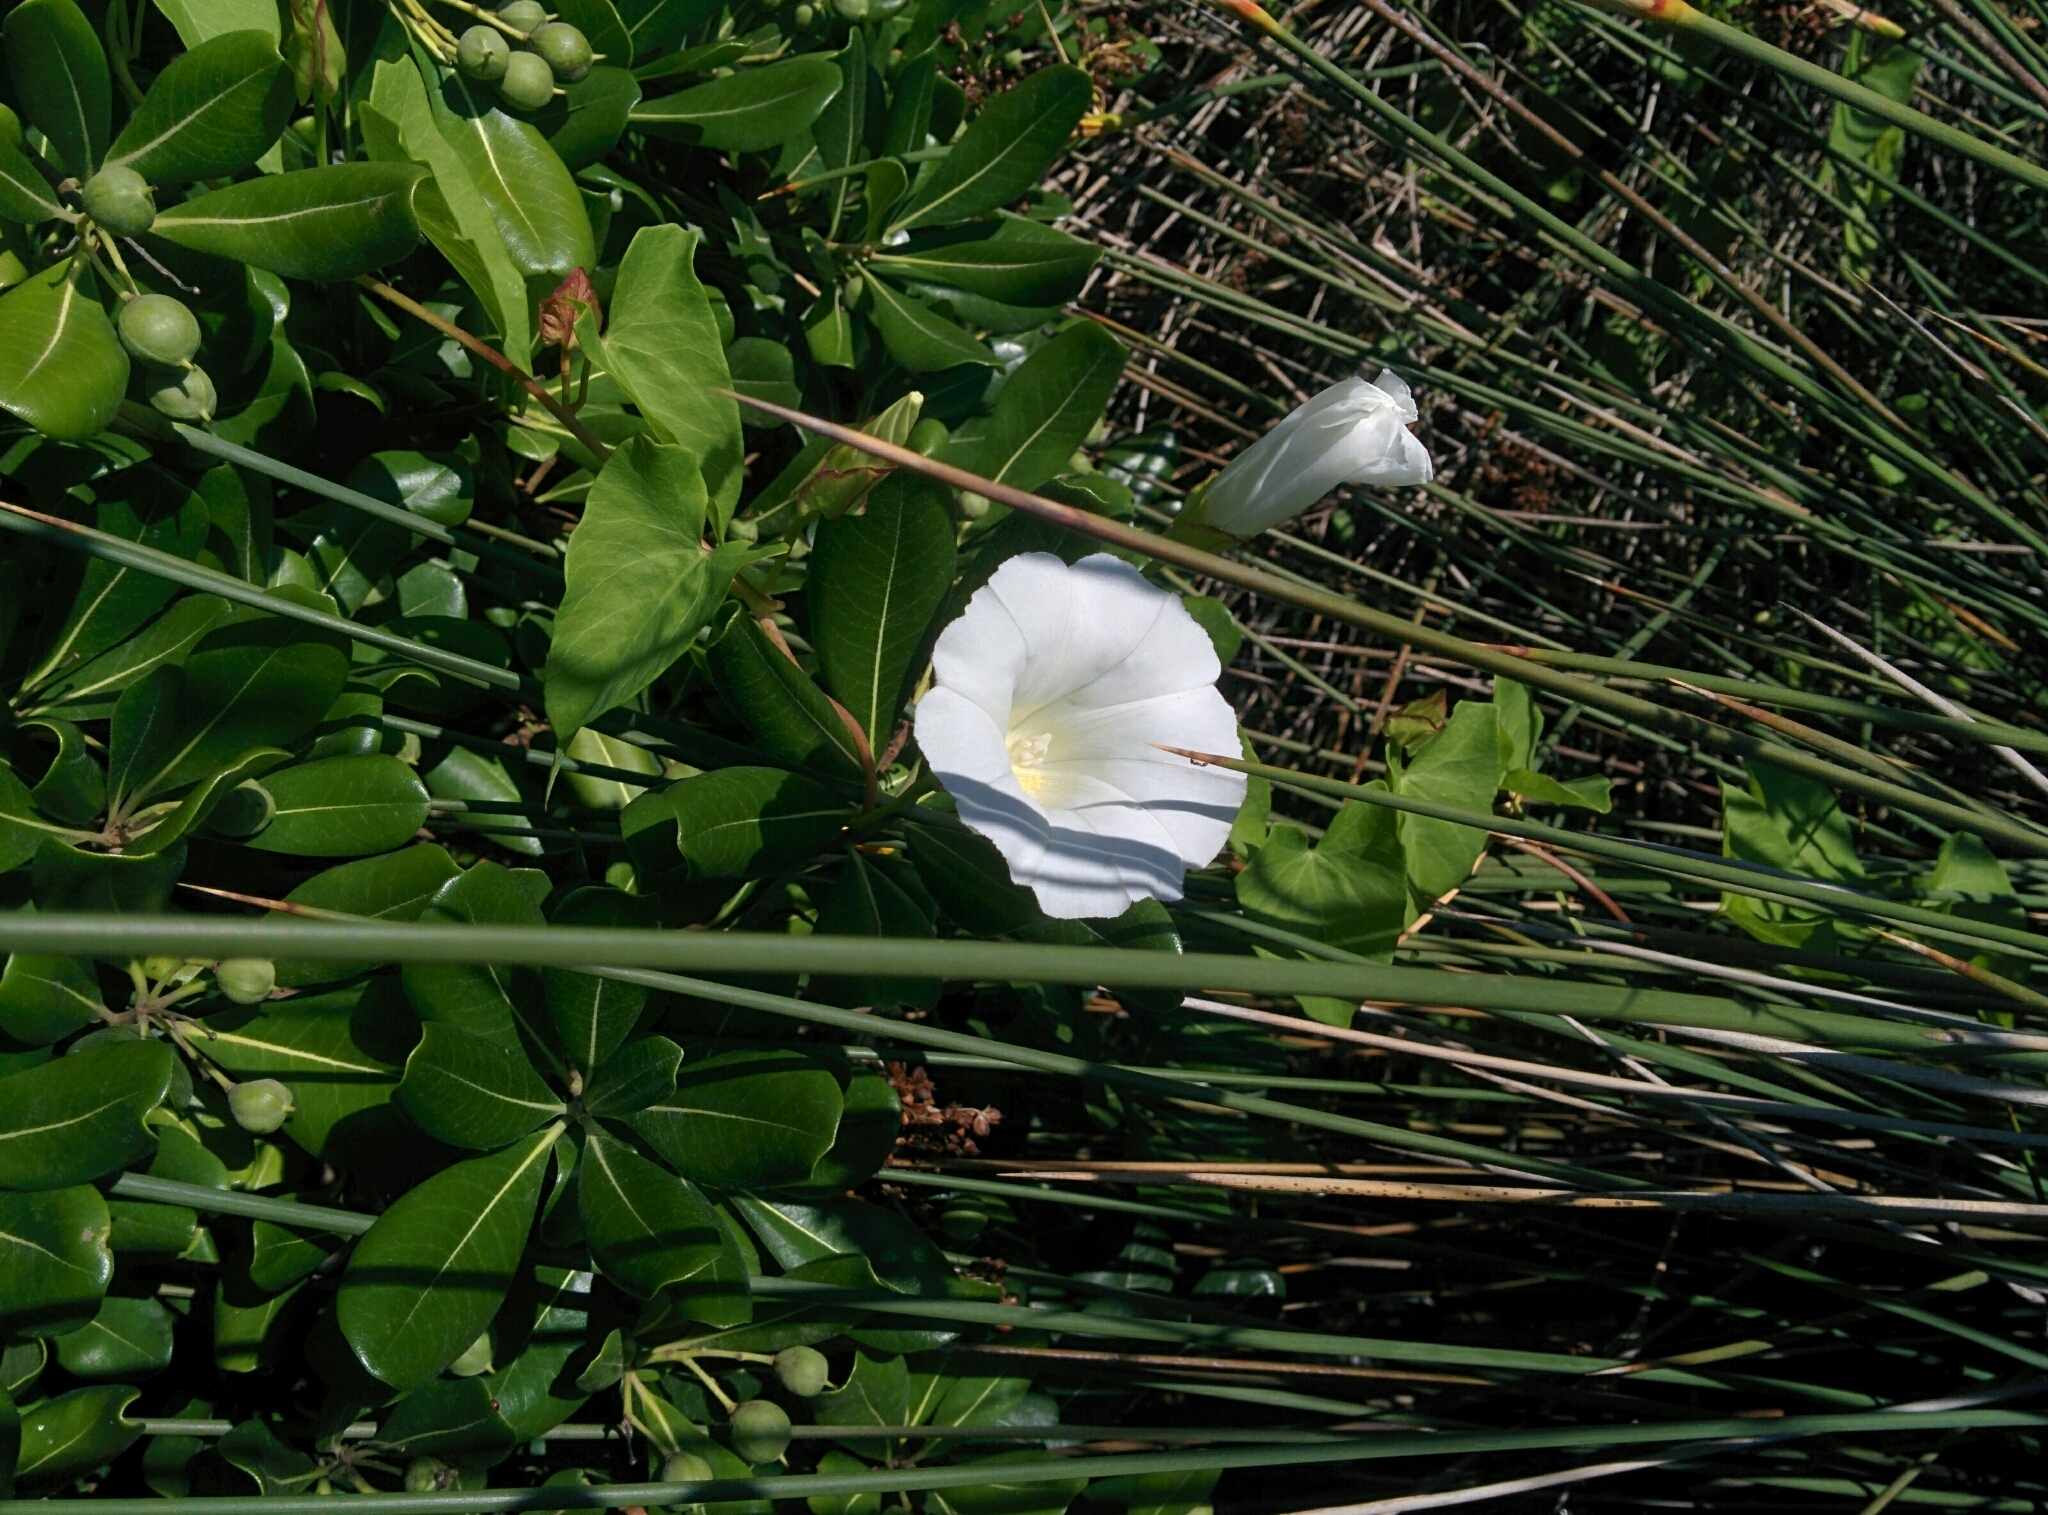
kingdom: Plantae
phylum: Tracheophyta
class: Magnoliopsida
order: Solanales
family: Convolvulaceae
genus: Calystegia
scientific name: Calystegia sepium
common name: Hedge bindweed
